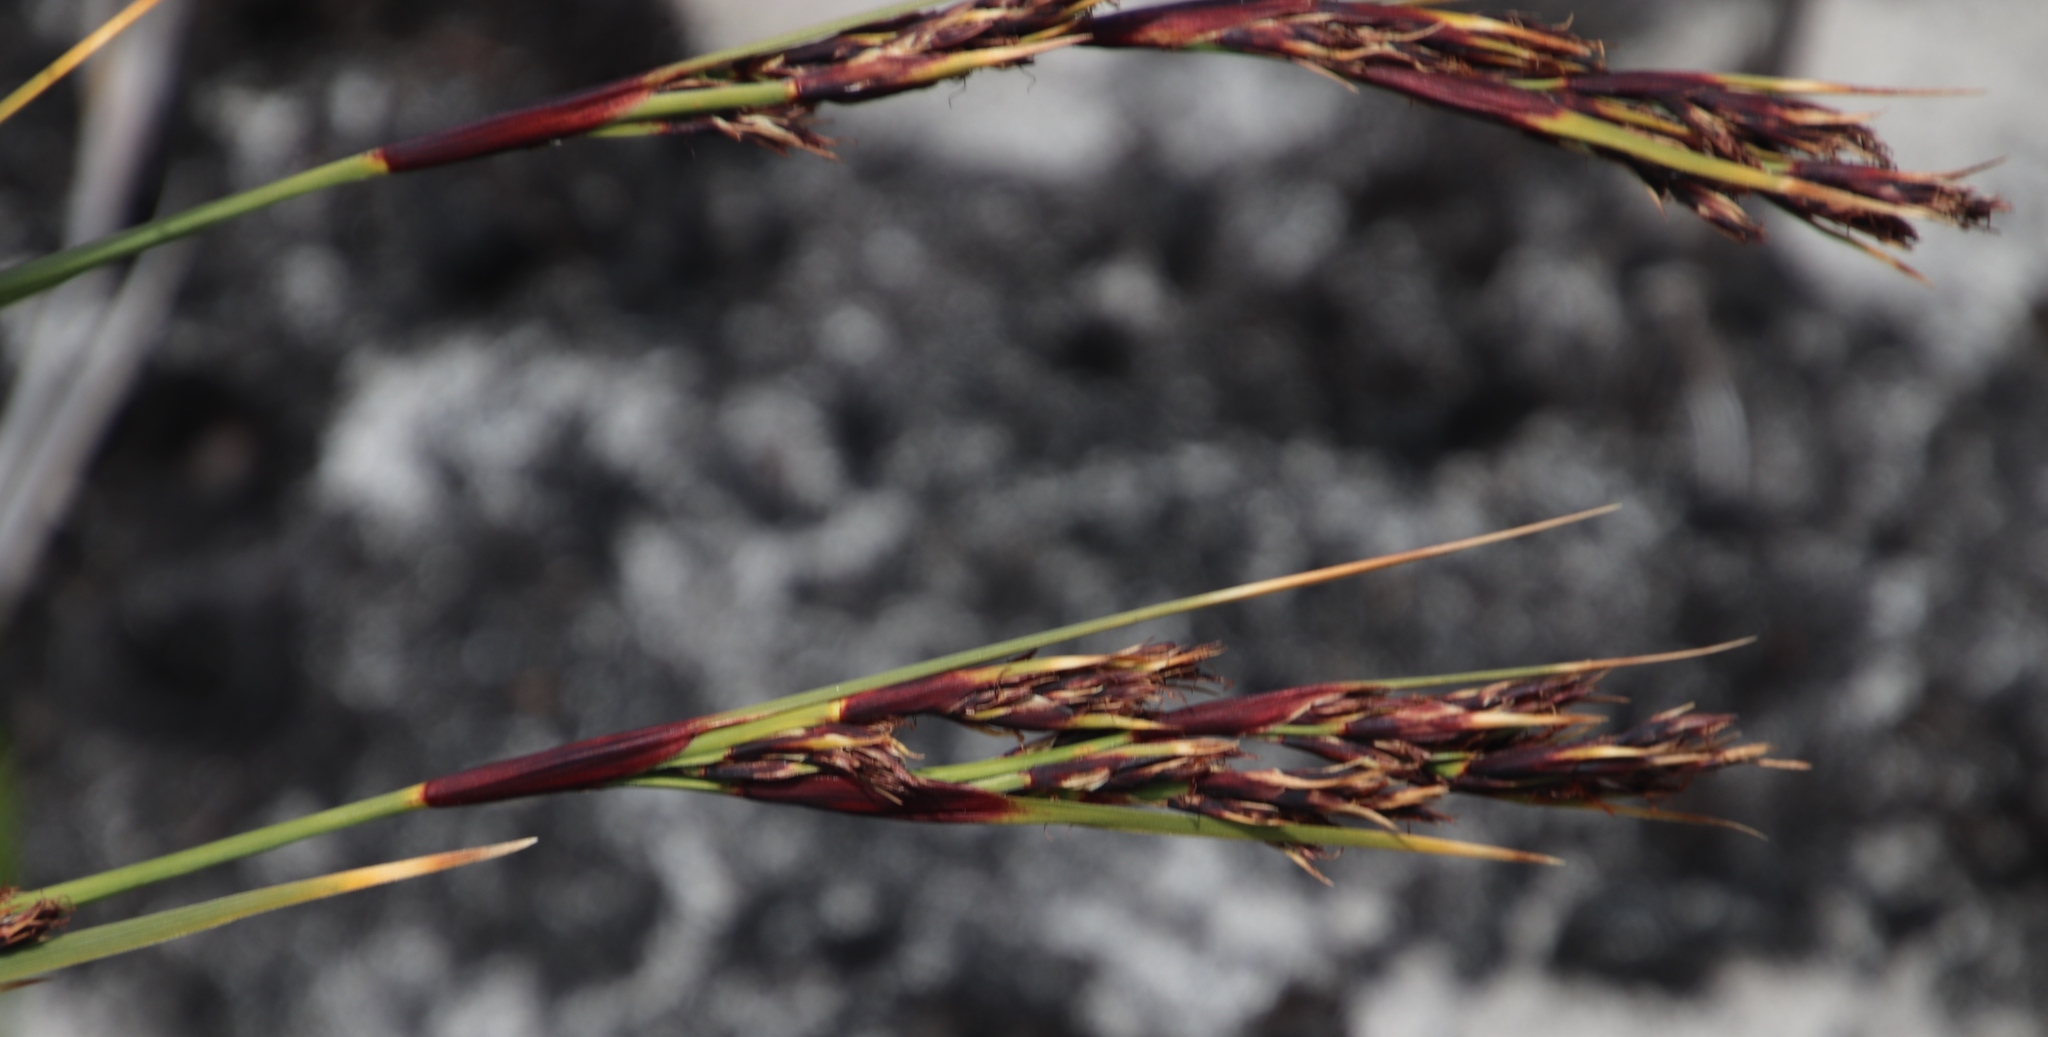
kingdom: Plantae
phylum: Tracheophyta
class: Liliopsida
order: Poales
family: Cyperaceae
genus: Cyathocoma
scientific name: Cyathocoma hexandra
